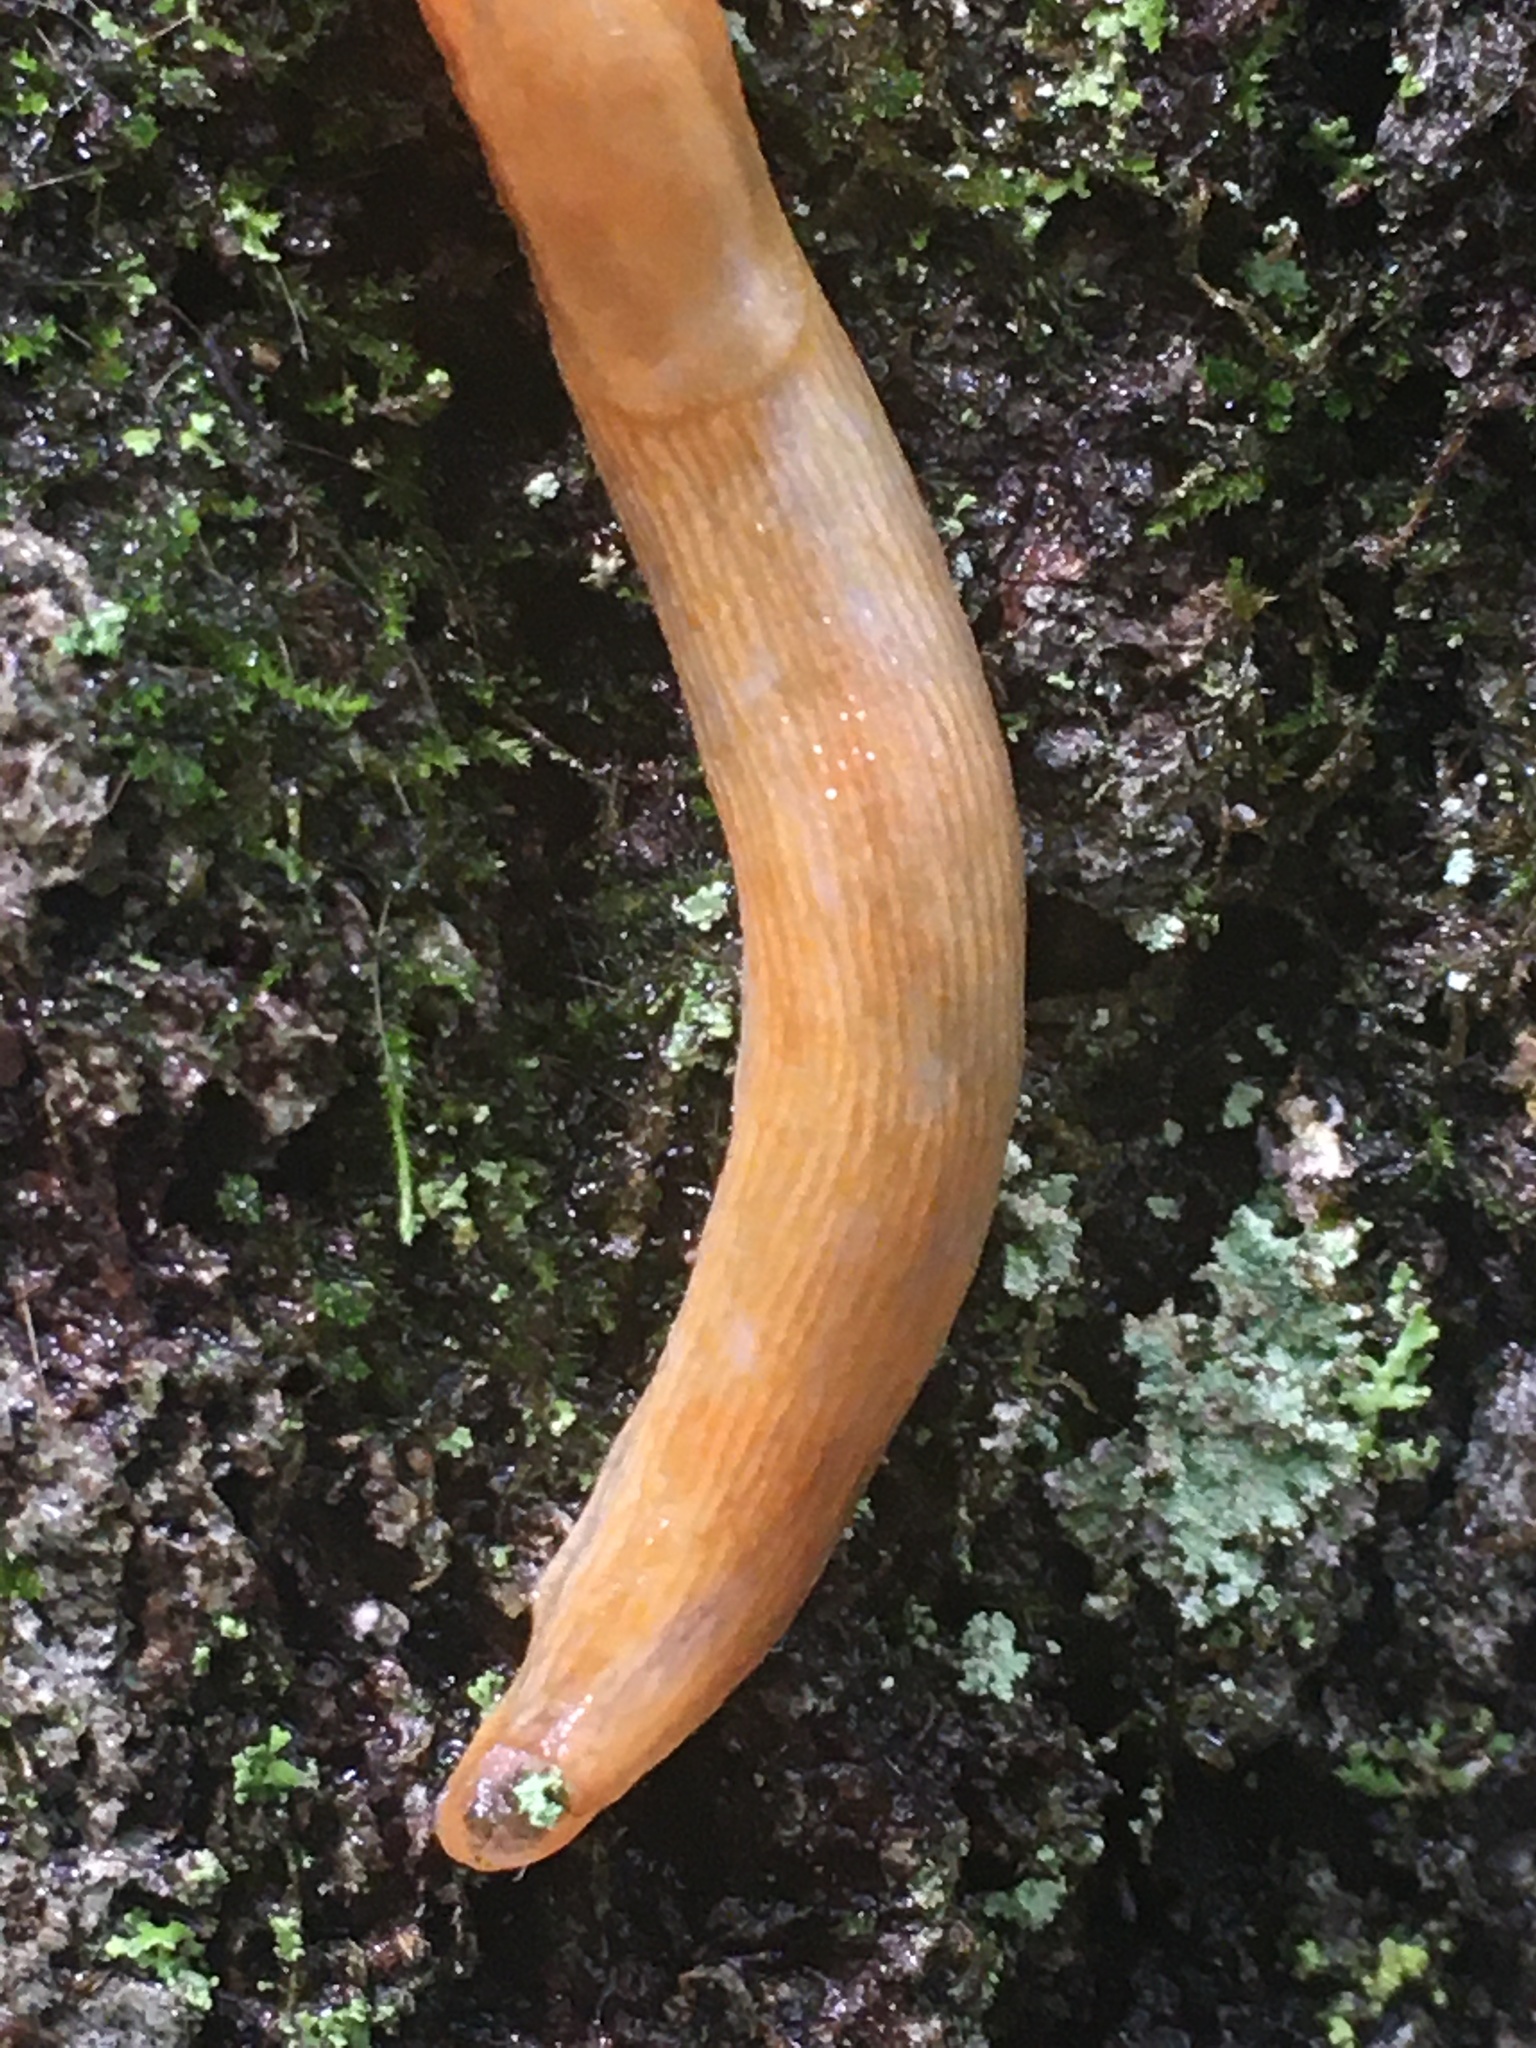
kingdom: Animalia
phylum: Mollusca
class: Gastropoda
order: Stylommatophora
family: Arionidae
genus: Arion
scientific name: Arion subfuscus
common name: Dusky arion
